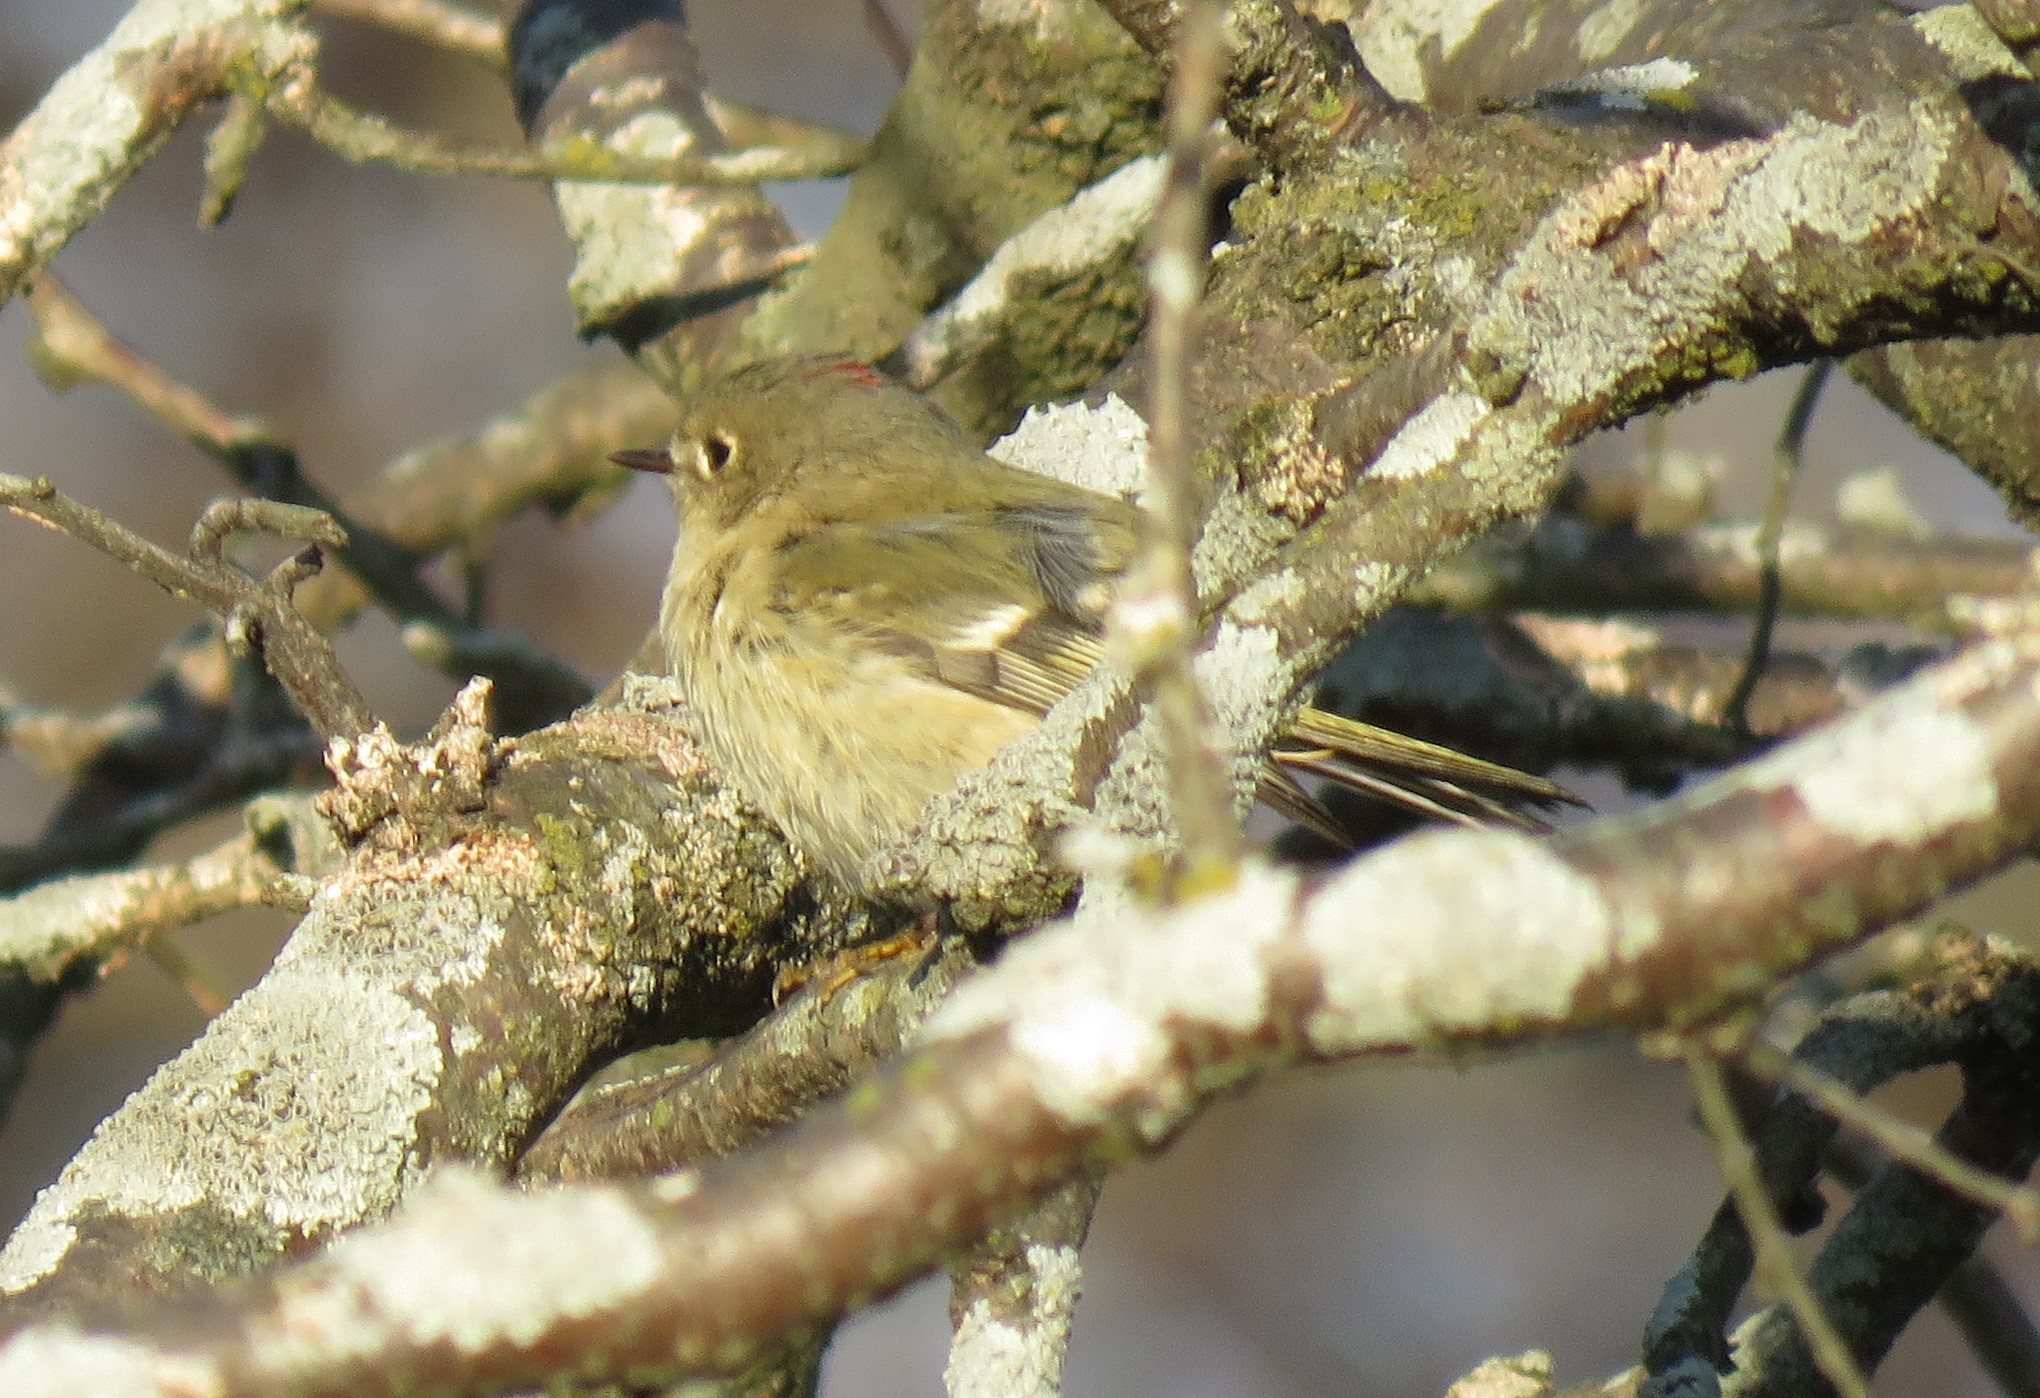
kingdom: Animalia
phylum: Chordata
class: Aves
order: Passeriformes
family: Regulidae
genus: Regulus
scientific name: Regulus calendula
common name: Ruby-crowned kinglet
